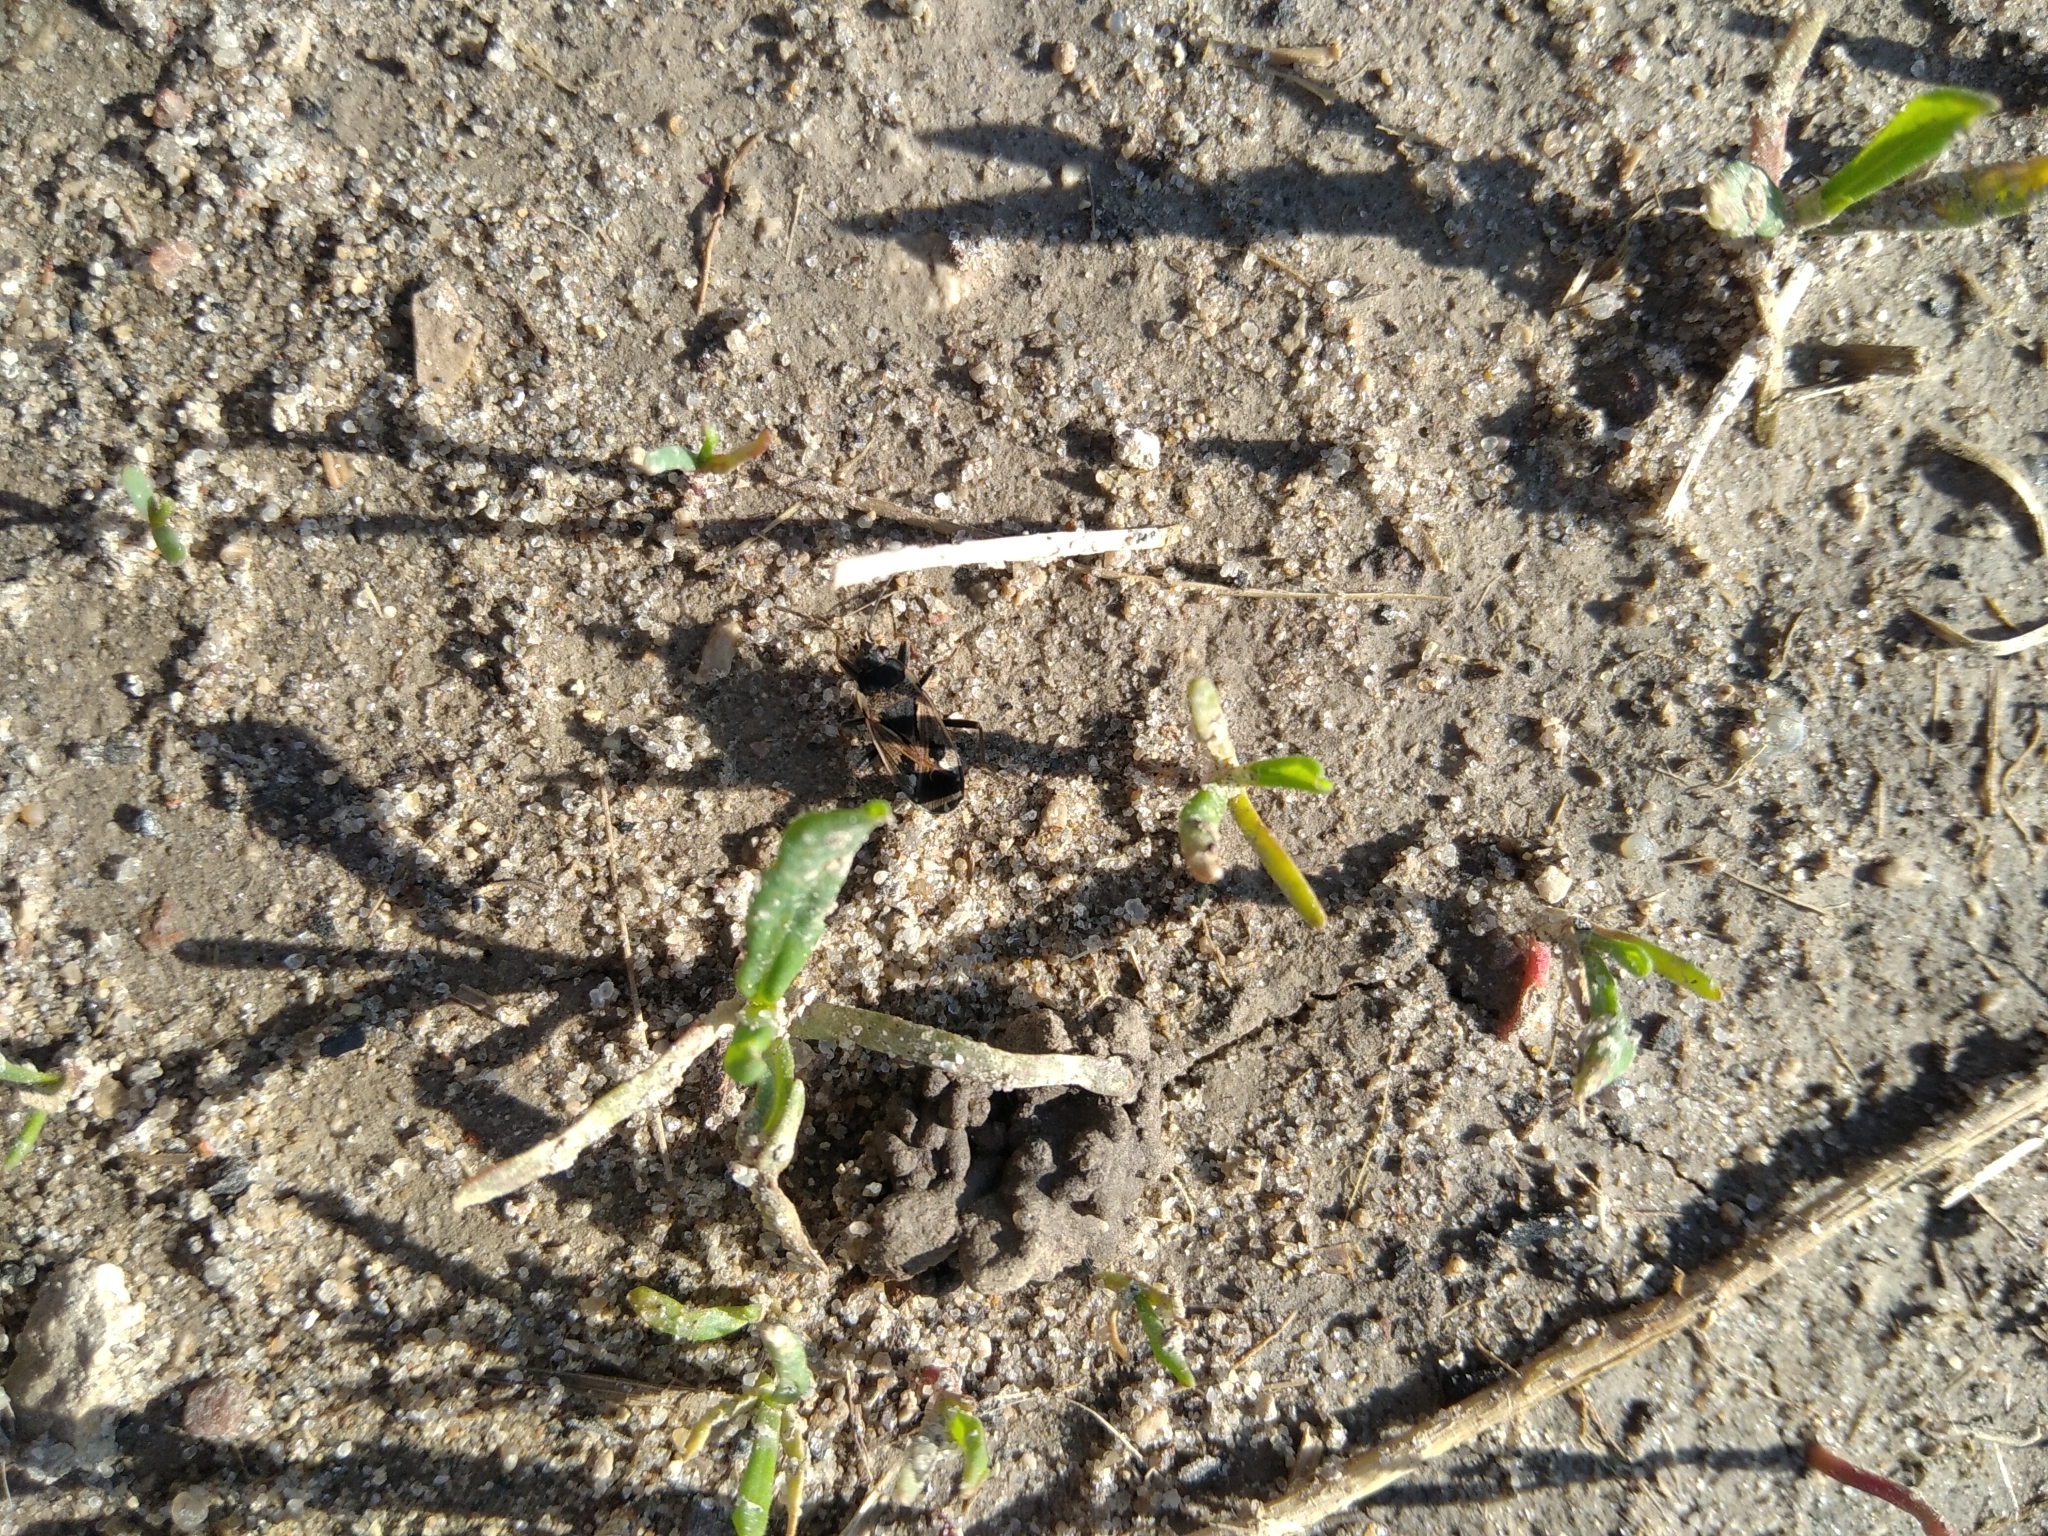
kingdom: Animalia
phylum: Arthropoda
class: Insecta
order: Hemiptera
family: Rhyparochromidae
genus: Rhyparochromus
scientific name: Rhyparochromus vulgaris
